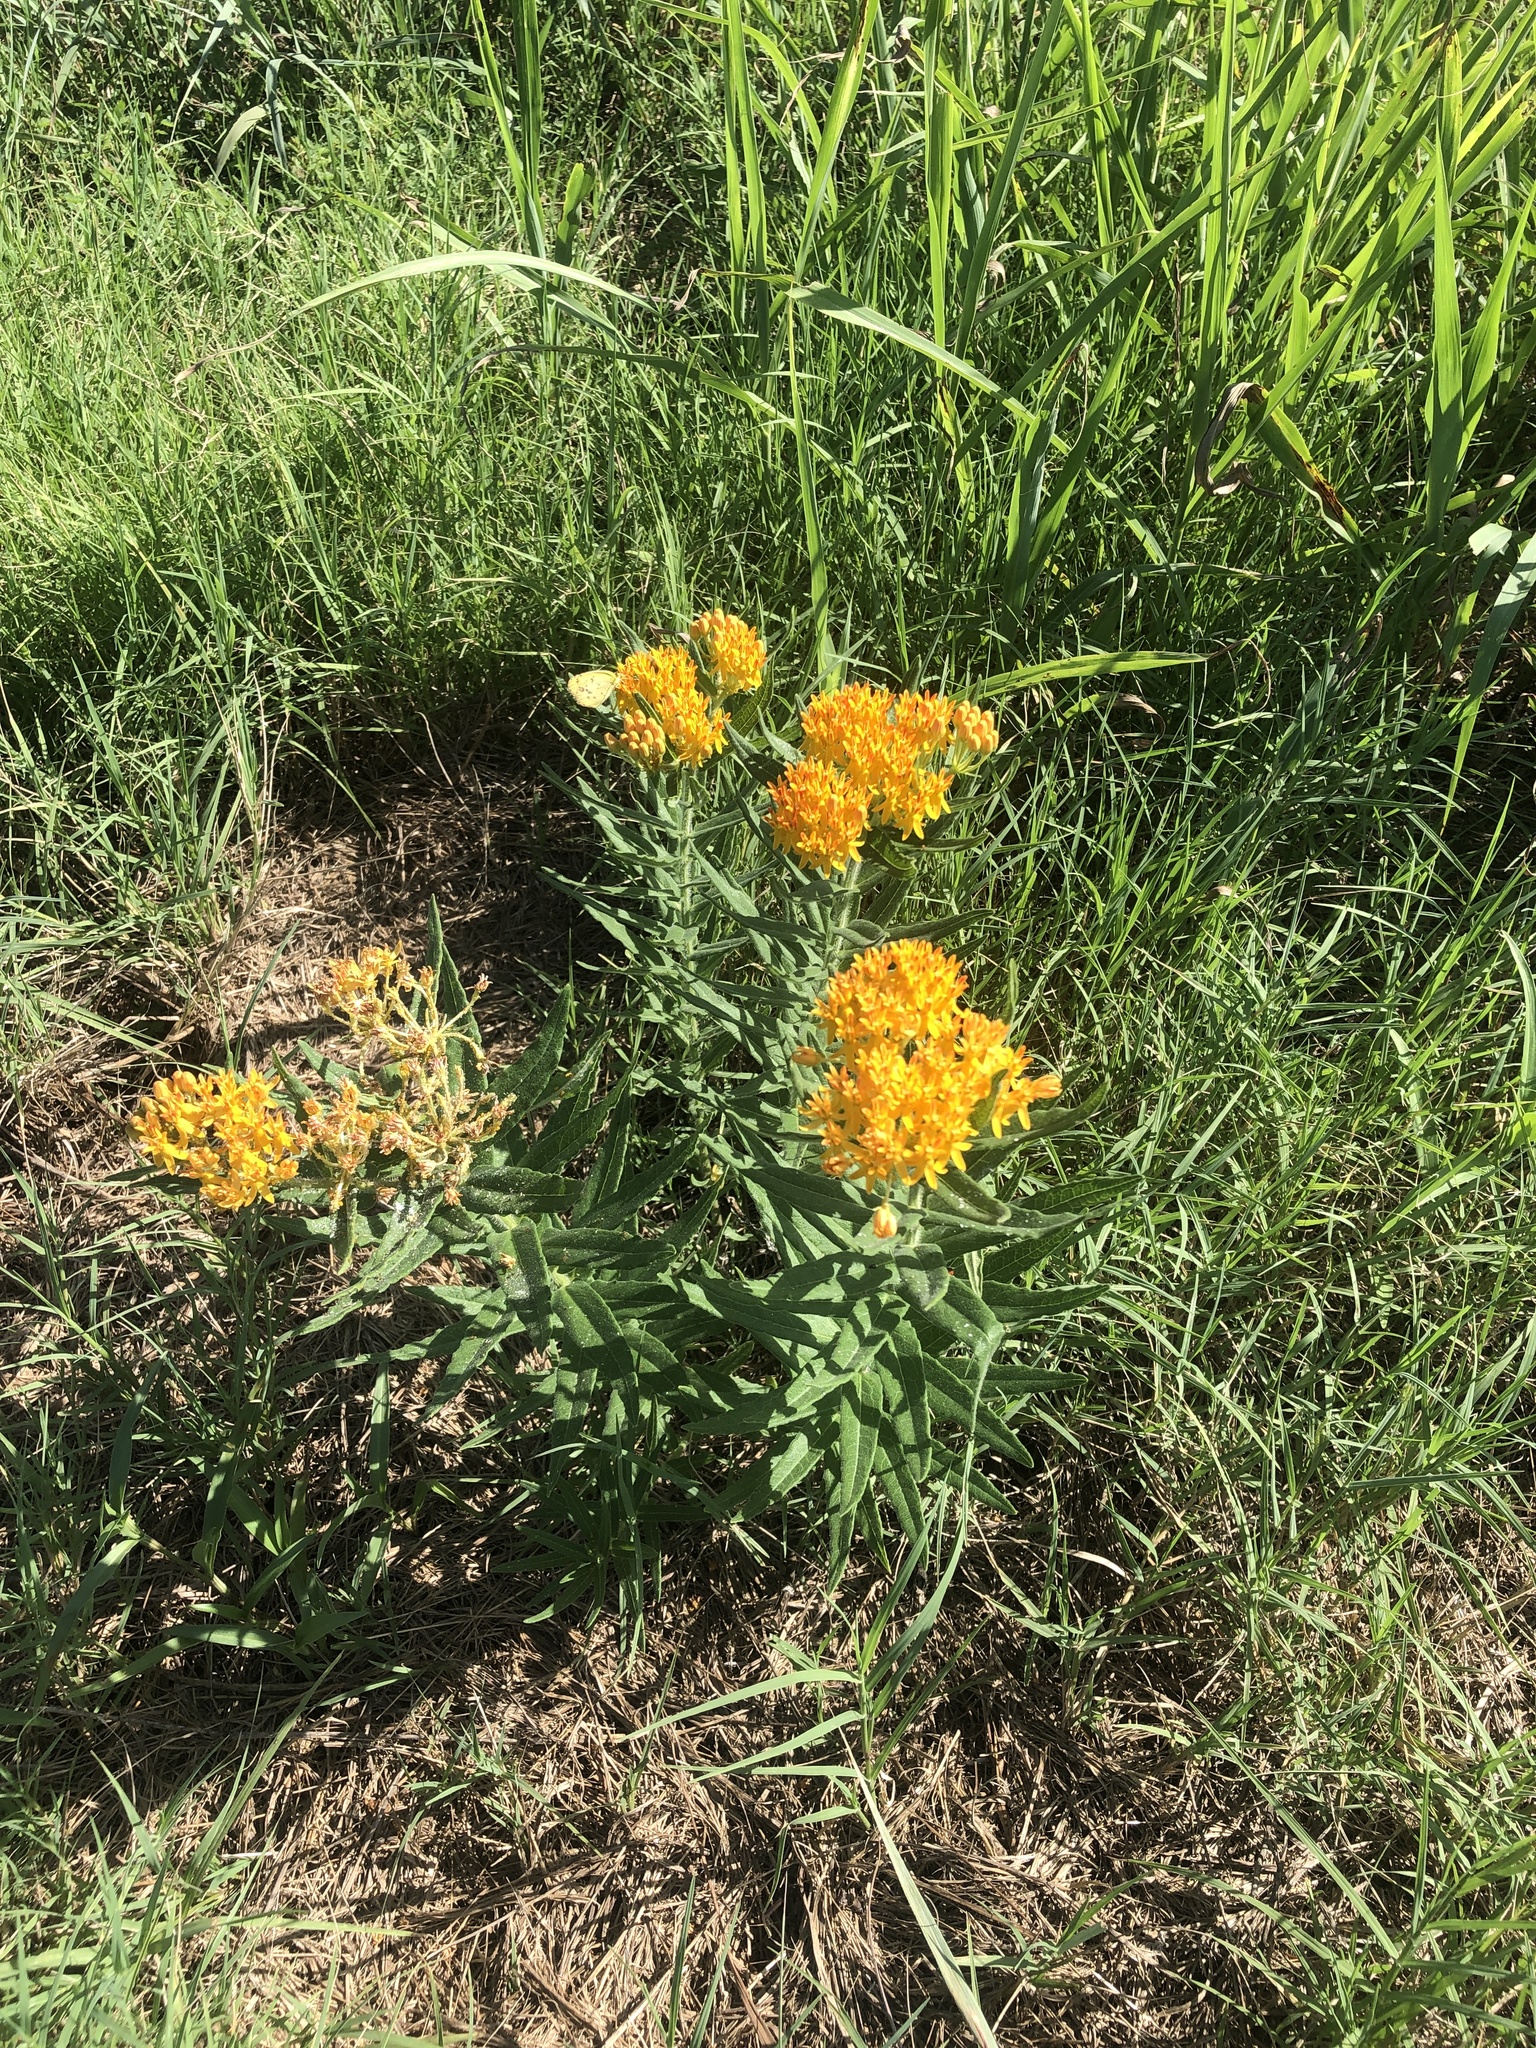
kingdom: Plantae
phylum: Tracheophyta
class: Magnoliopsida
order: Gentianales
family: Apocynaceae
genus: Asclepias
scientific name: Asclepias tuberosa
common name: Butterfly milkweed
